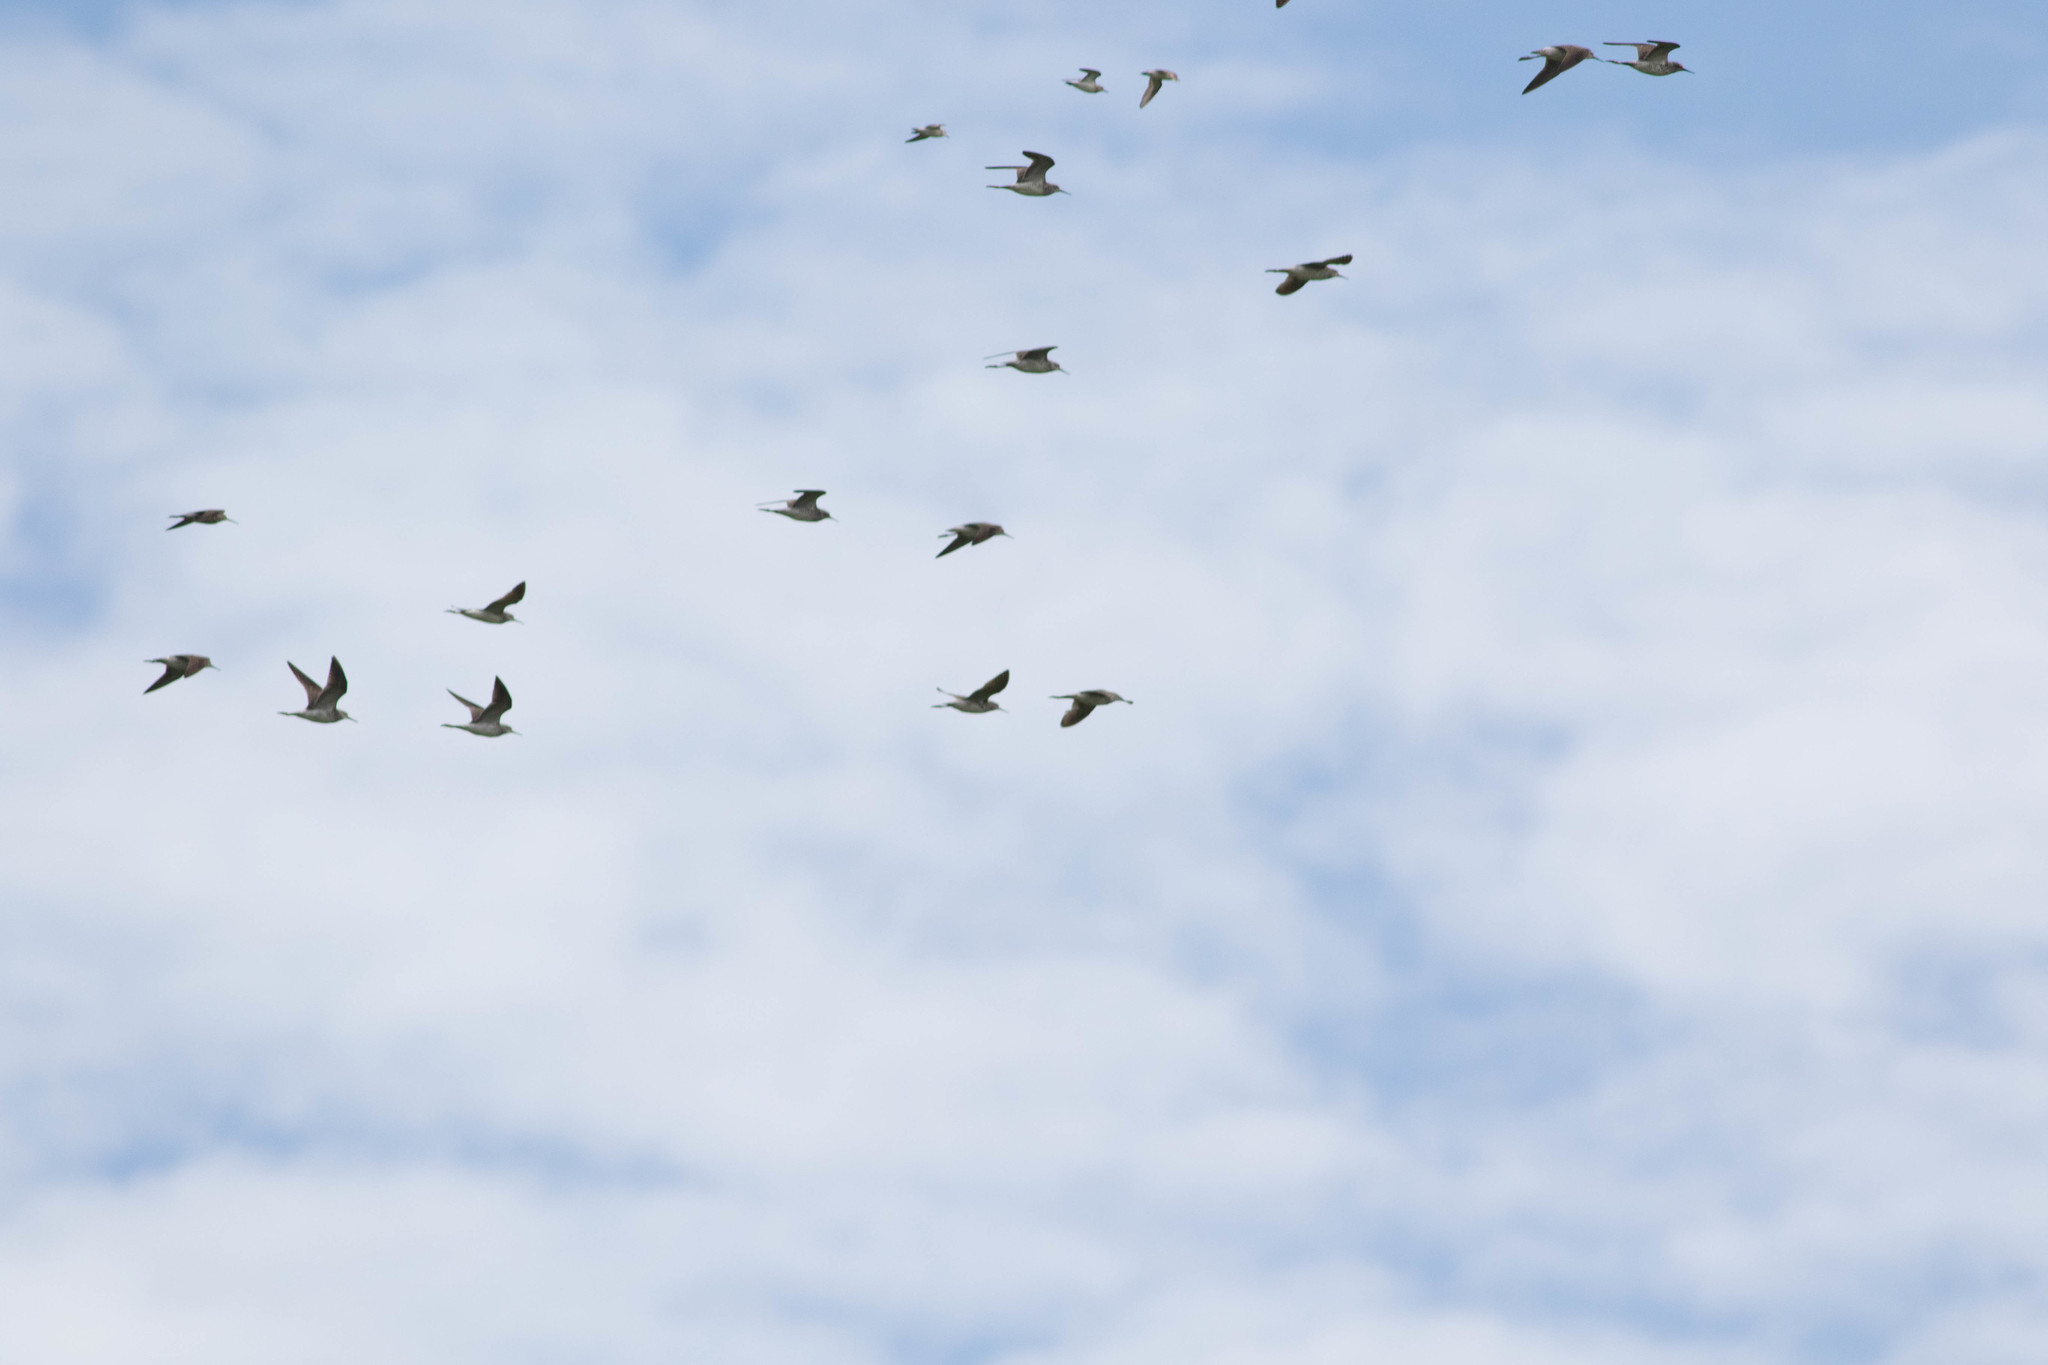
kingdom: Animalia
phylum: Chordata
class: Aves
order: Charadriiformes
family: Scolopacidae
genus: Tringa
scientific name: Tringa
